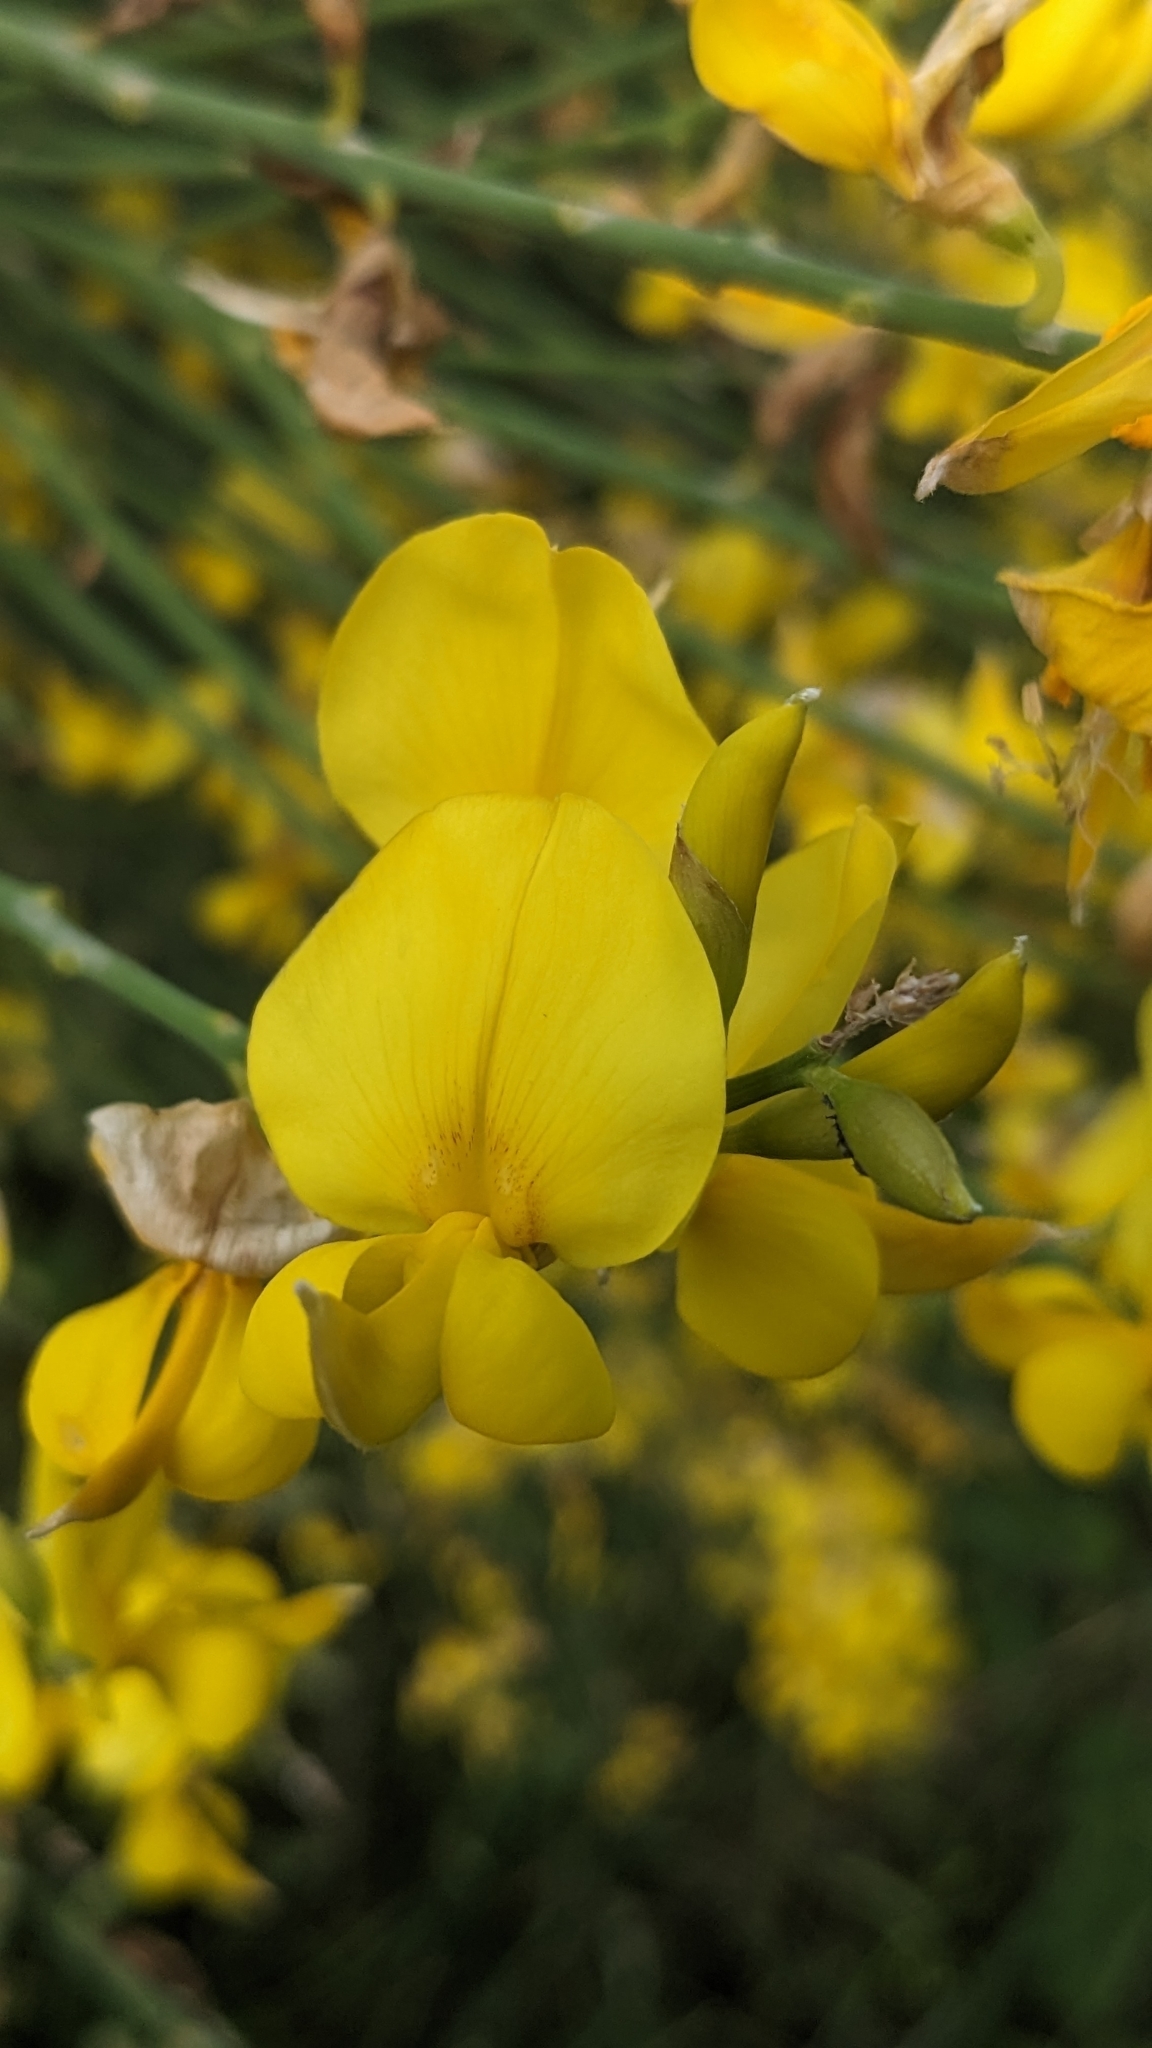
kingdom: Plantae
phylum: Tracheophyta
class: Magnoliopsida
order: Fabales
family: Fabaceae
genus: Spartium
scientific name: Spartium junceum
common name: Spanish broom
